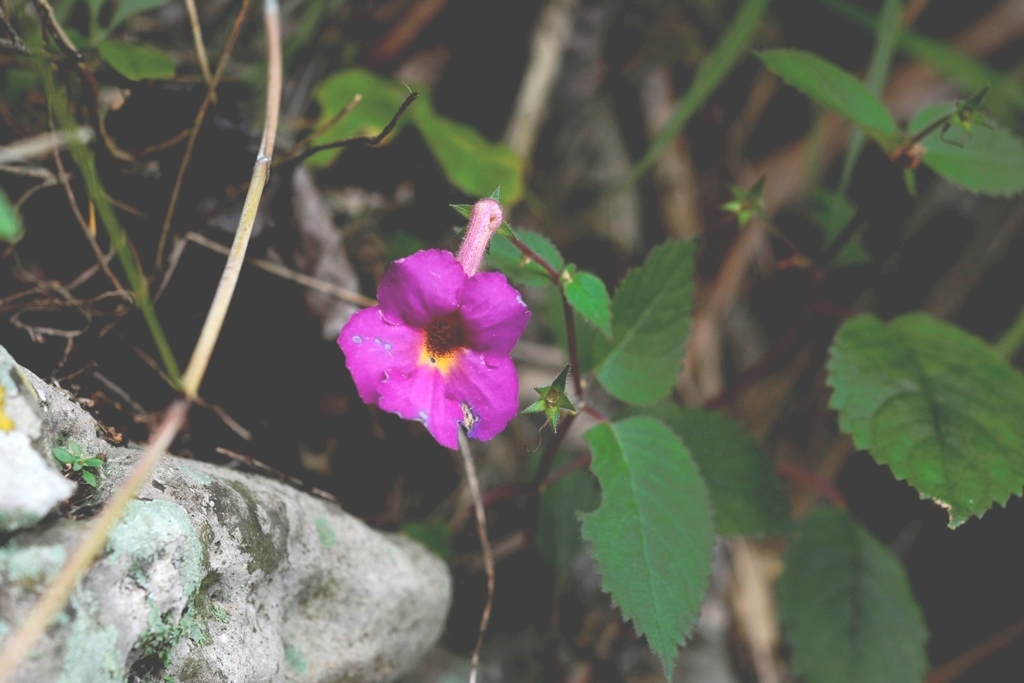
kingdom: Plantae
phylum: Tracheophyta
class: Magnoliopsida
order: Lamiales
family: Gesneriaceae
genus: Achimenes
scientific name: Achimenes skinneri
